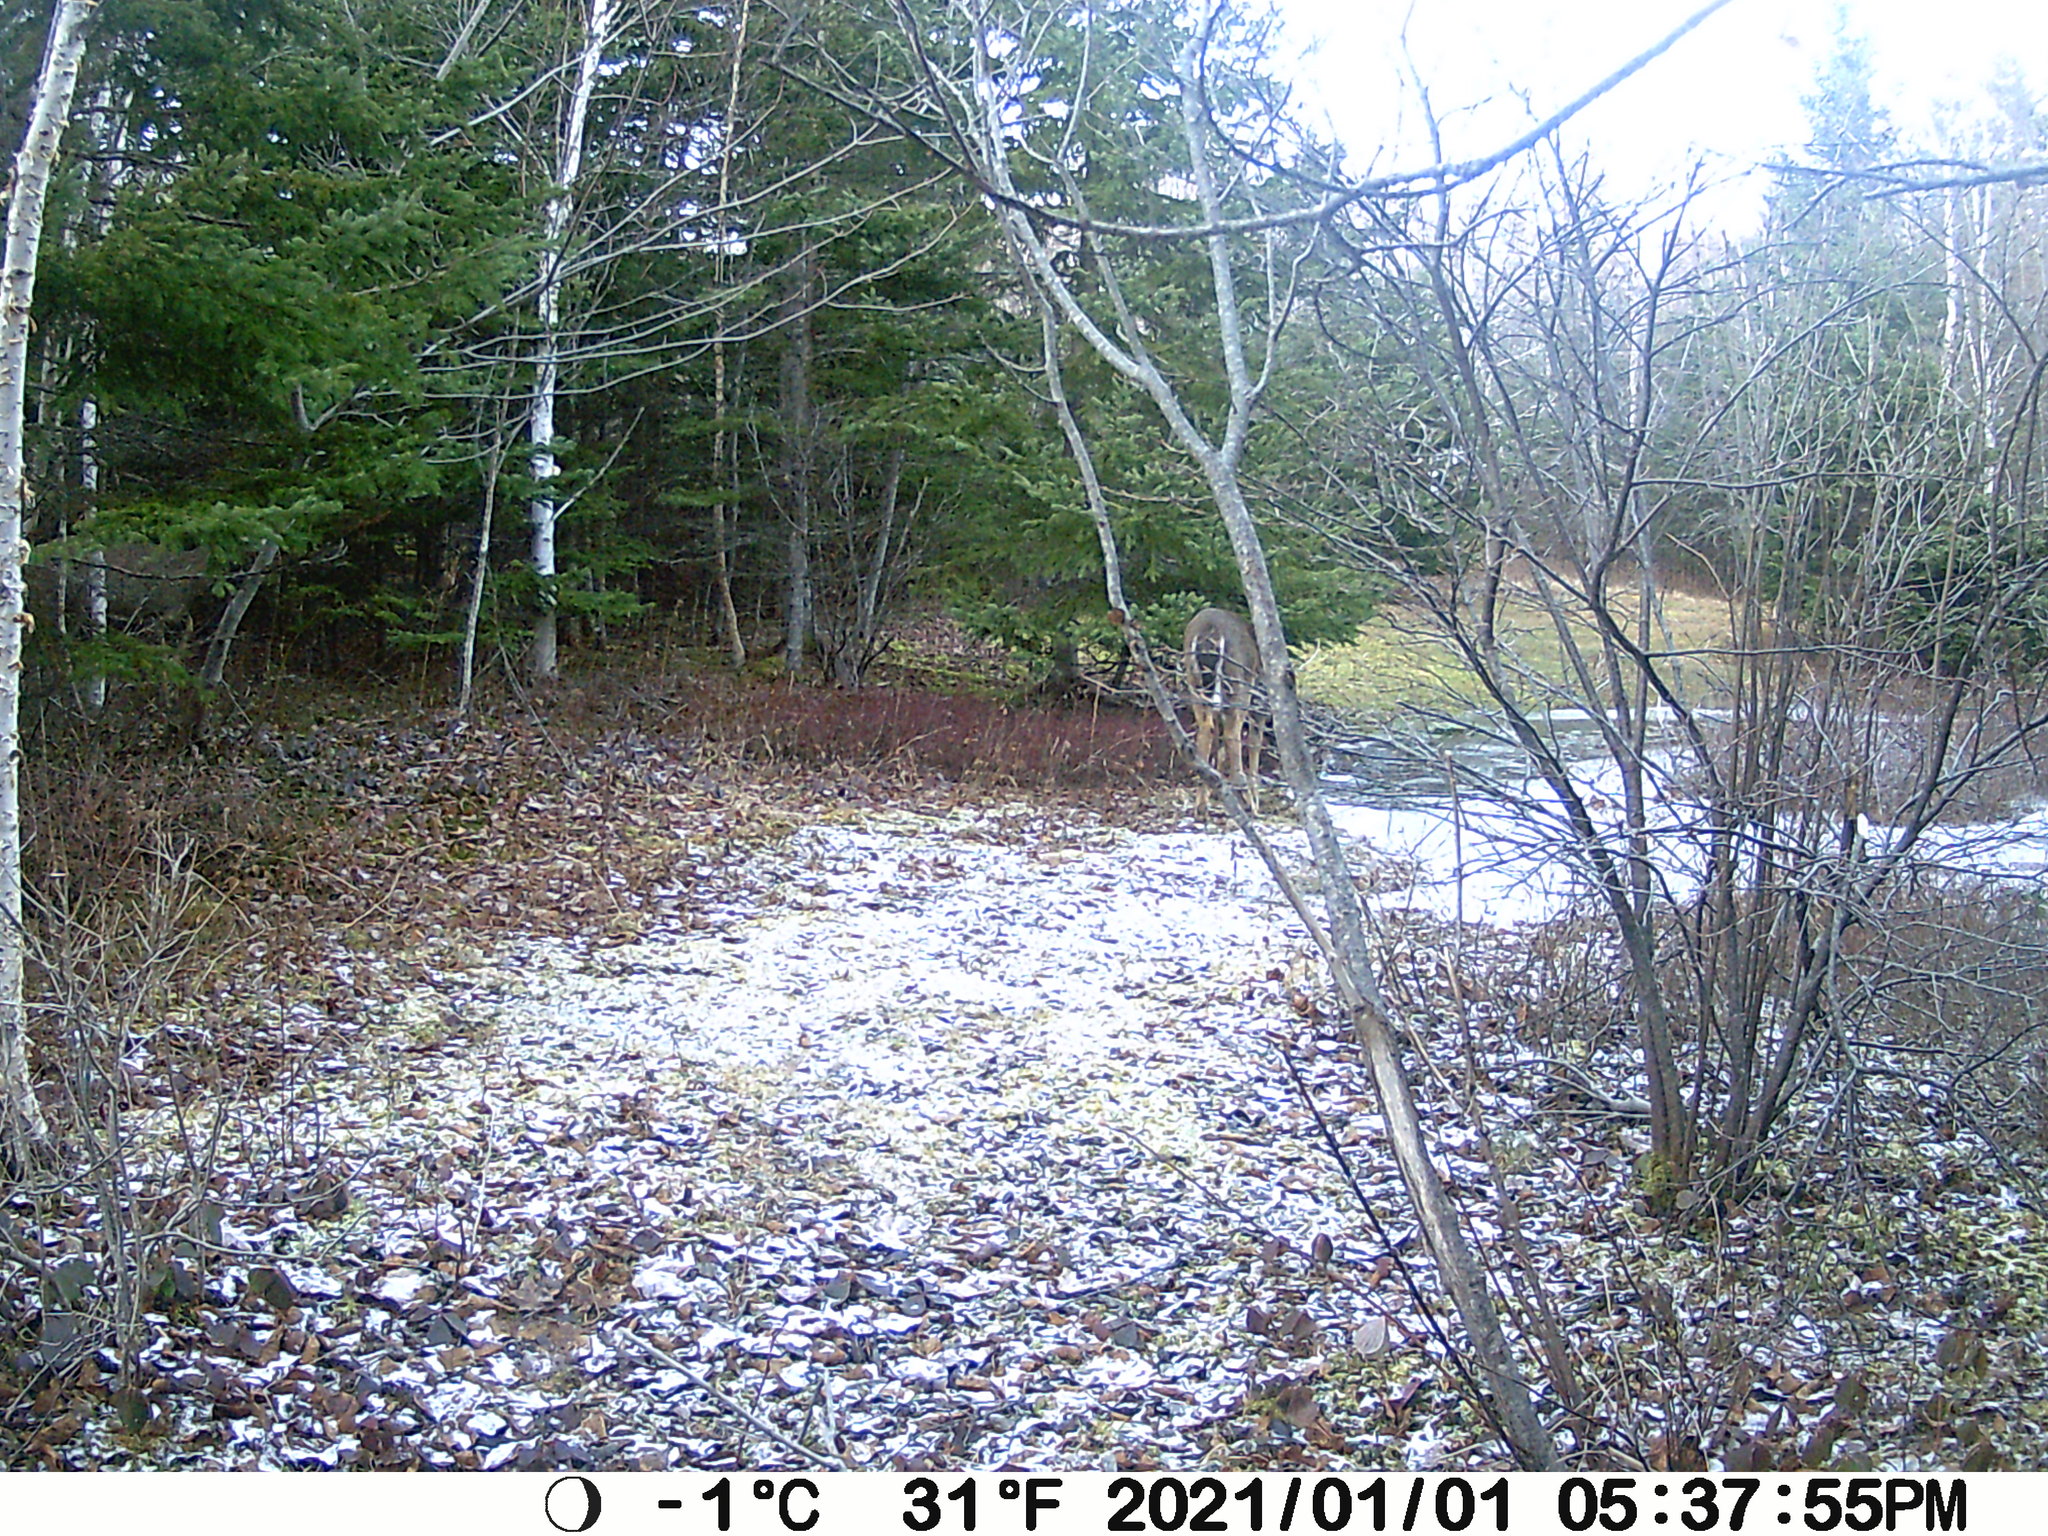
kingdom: Animalia
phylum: Chordata
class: Mammalia
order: Artiodactyla
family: Cervidae
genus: Odocoileus
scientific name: Odocoileus virginianus
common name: White-tailed deer
